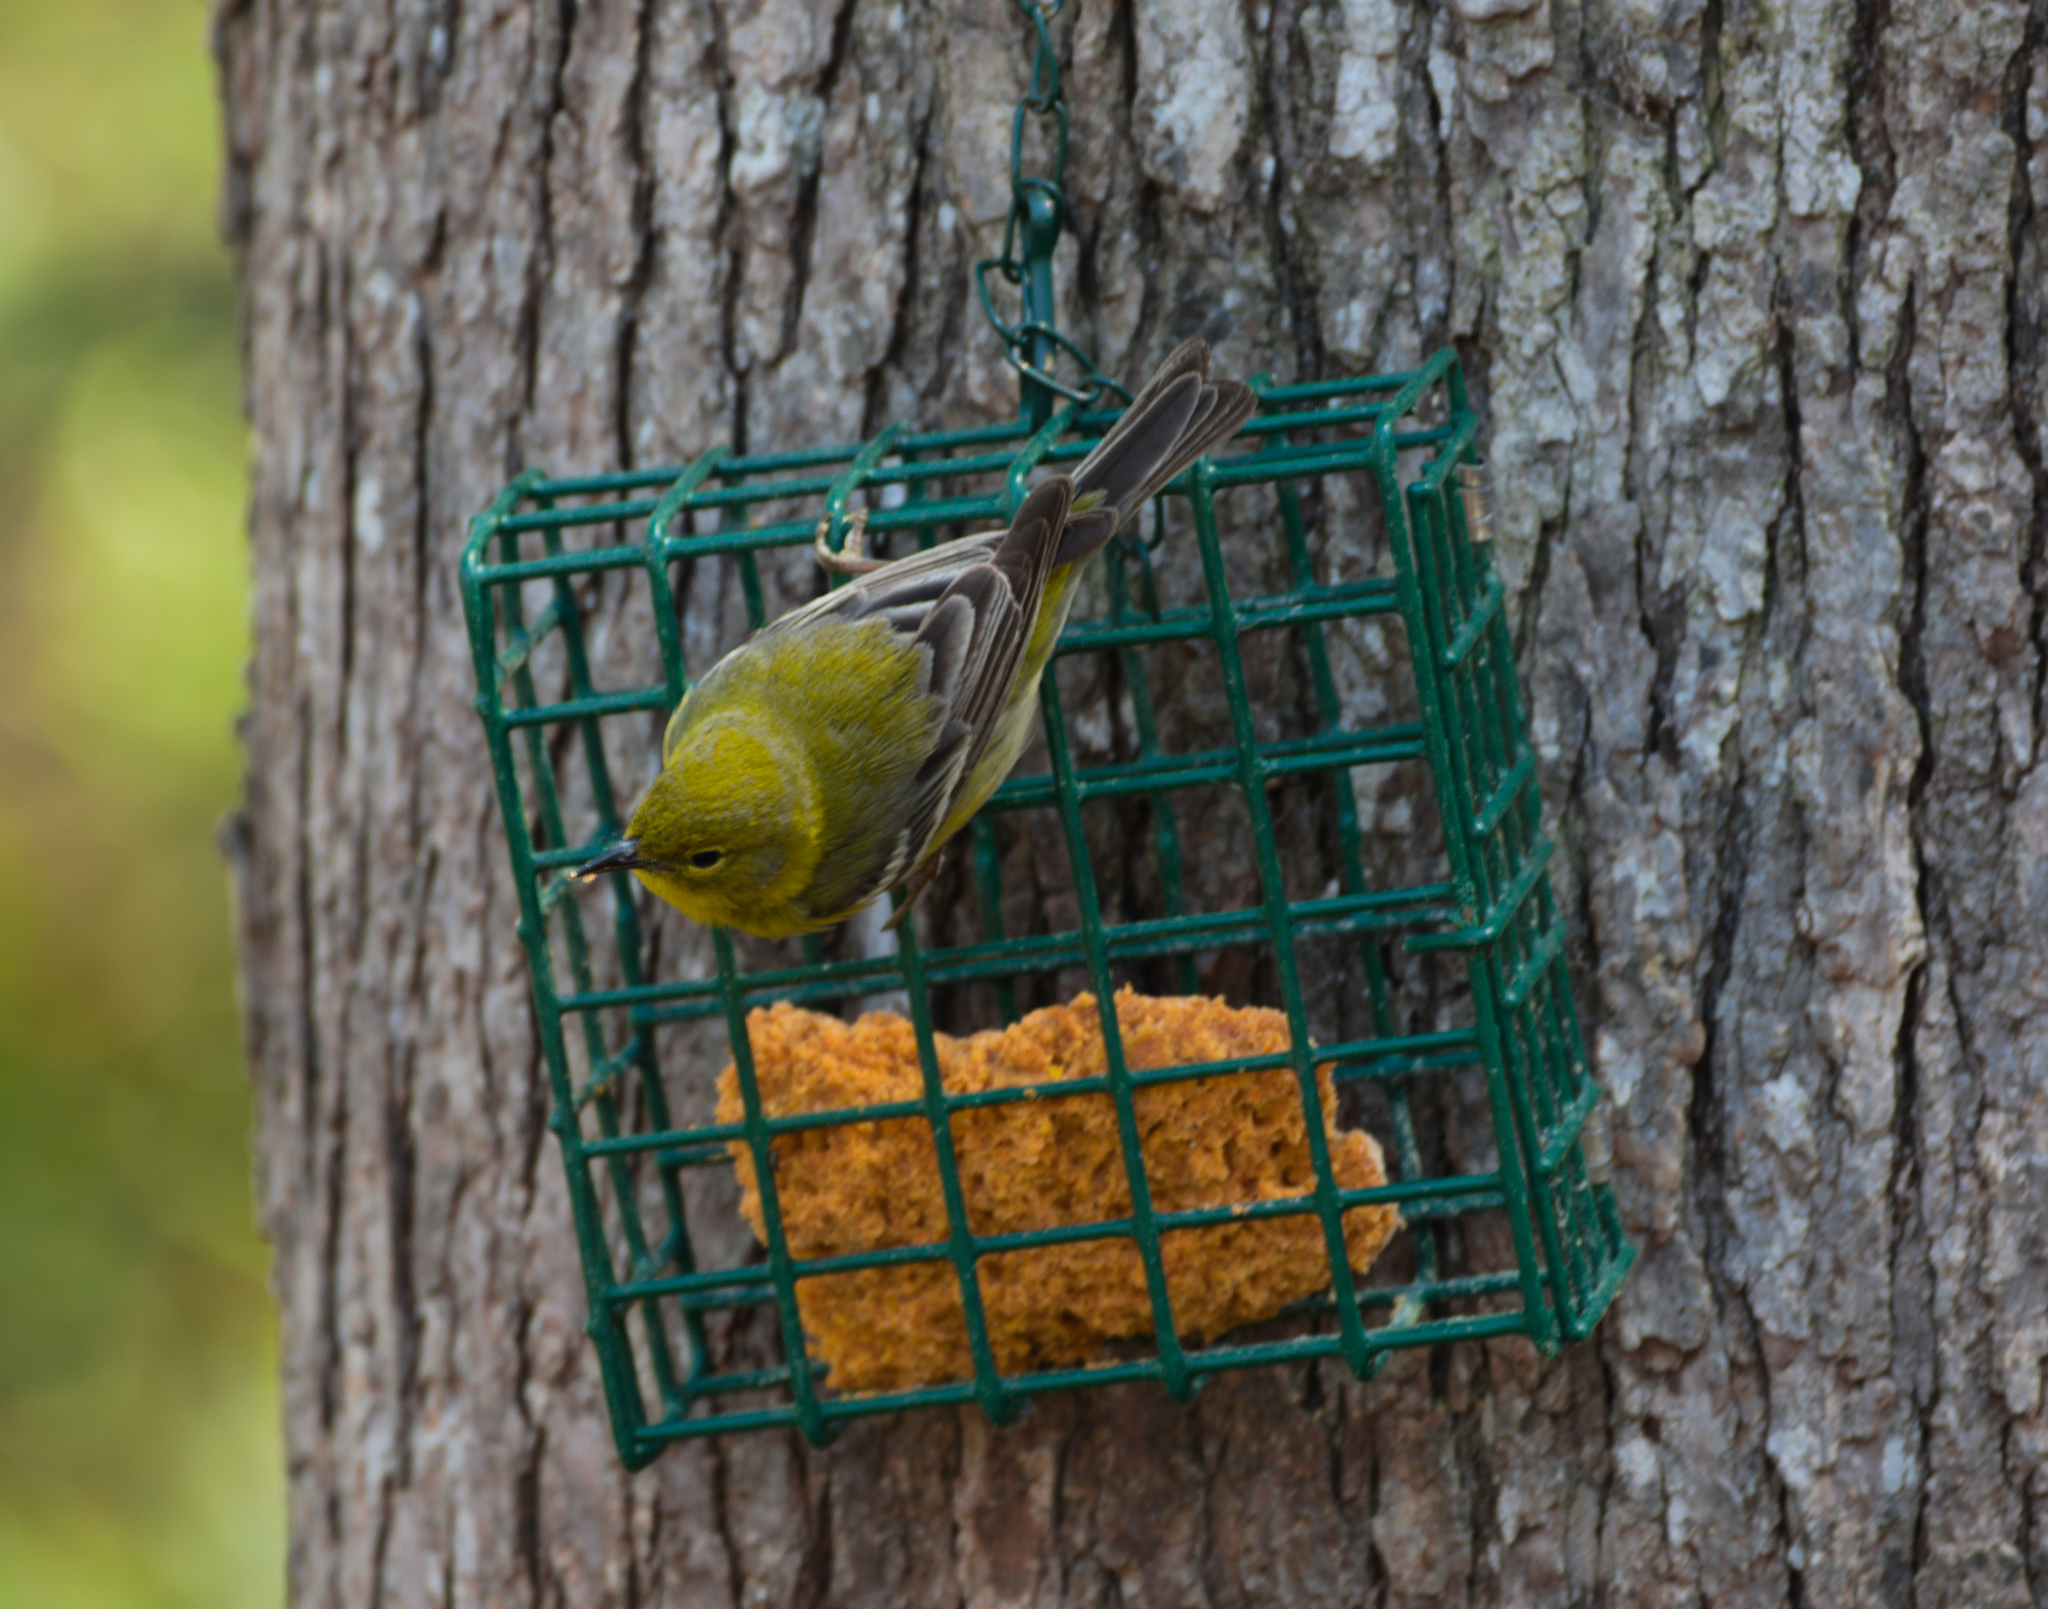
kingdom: Animalia
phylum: Chordata
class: Aves
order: Passeriformes
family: Parulidae
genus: Setophaga
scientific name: Setophaga pinus
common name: Pine warbler
